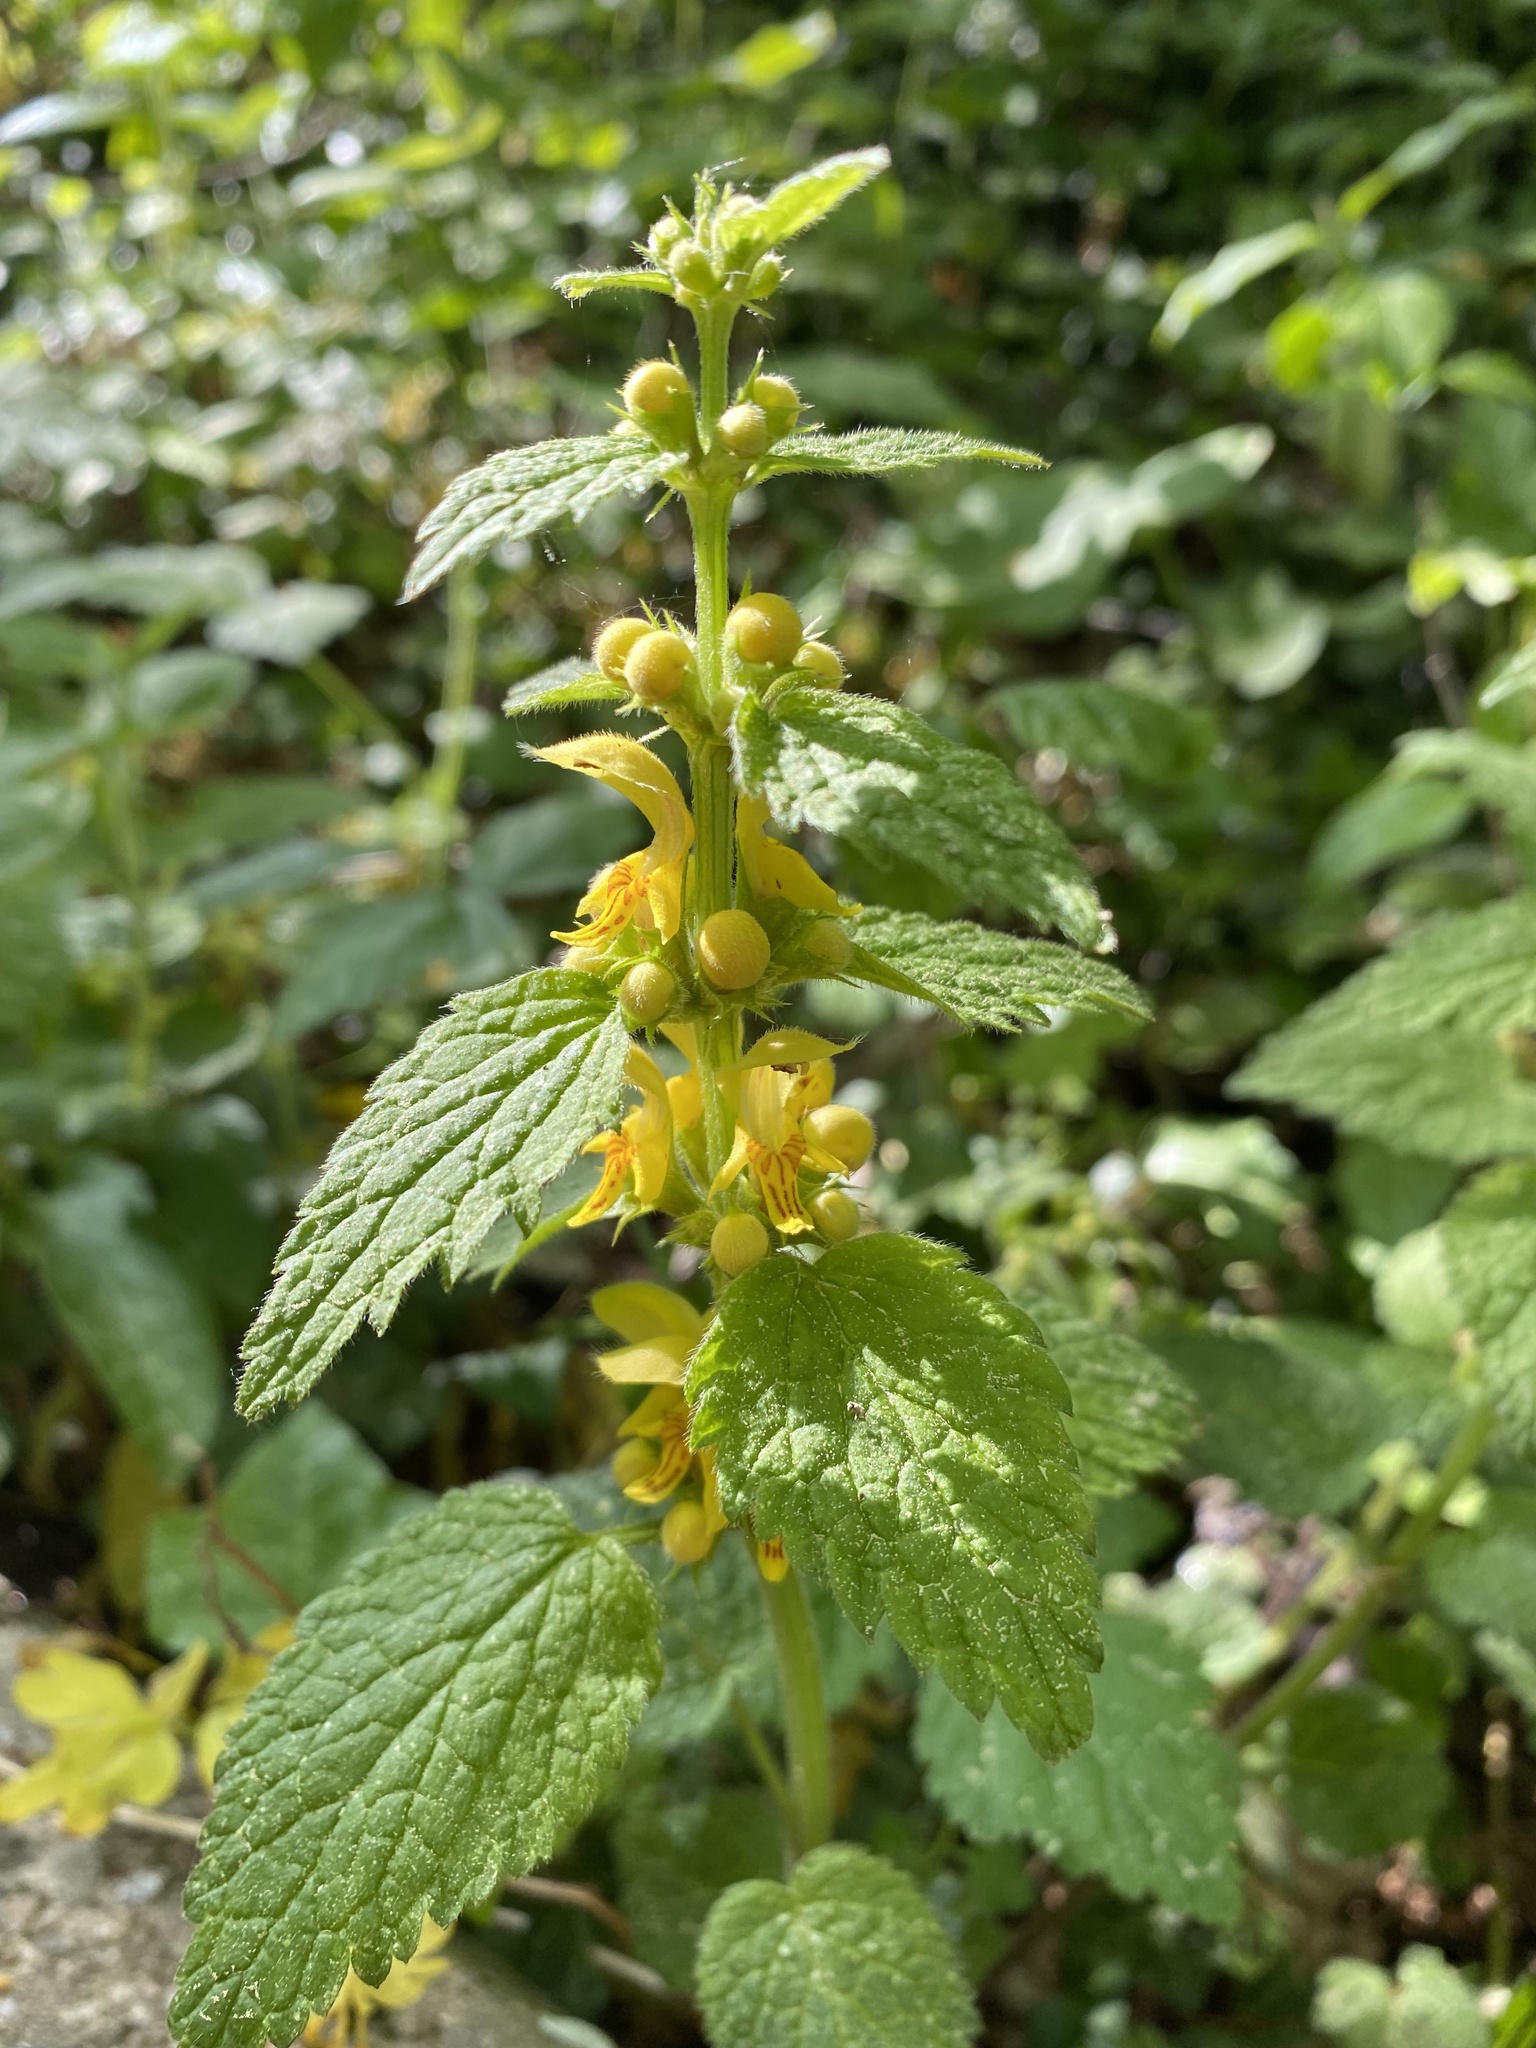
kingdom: Plantae
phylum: Tracheophyta
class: Magnoliopsida
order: Lamiales
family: Lamiaceae
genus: Lamium
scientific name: Lamium galeobdolon
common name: Yellow archangel
